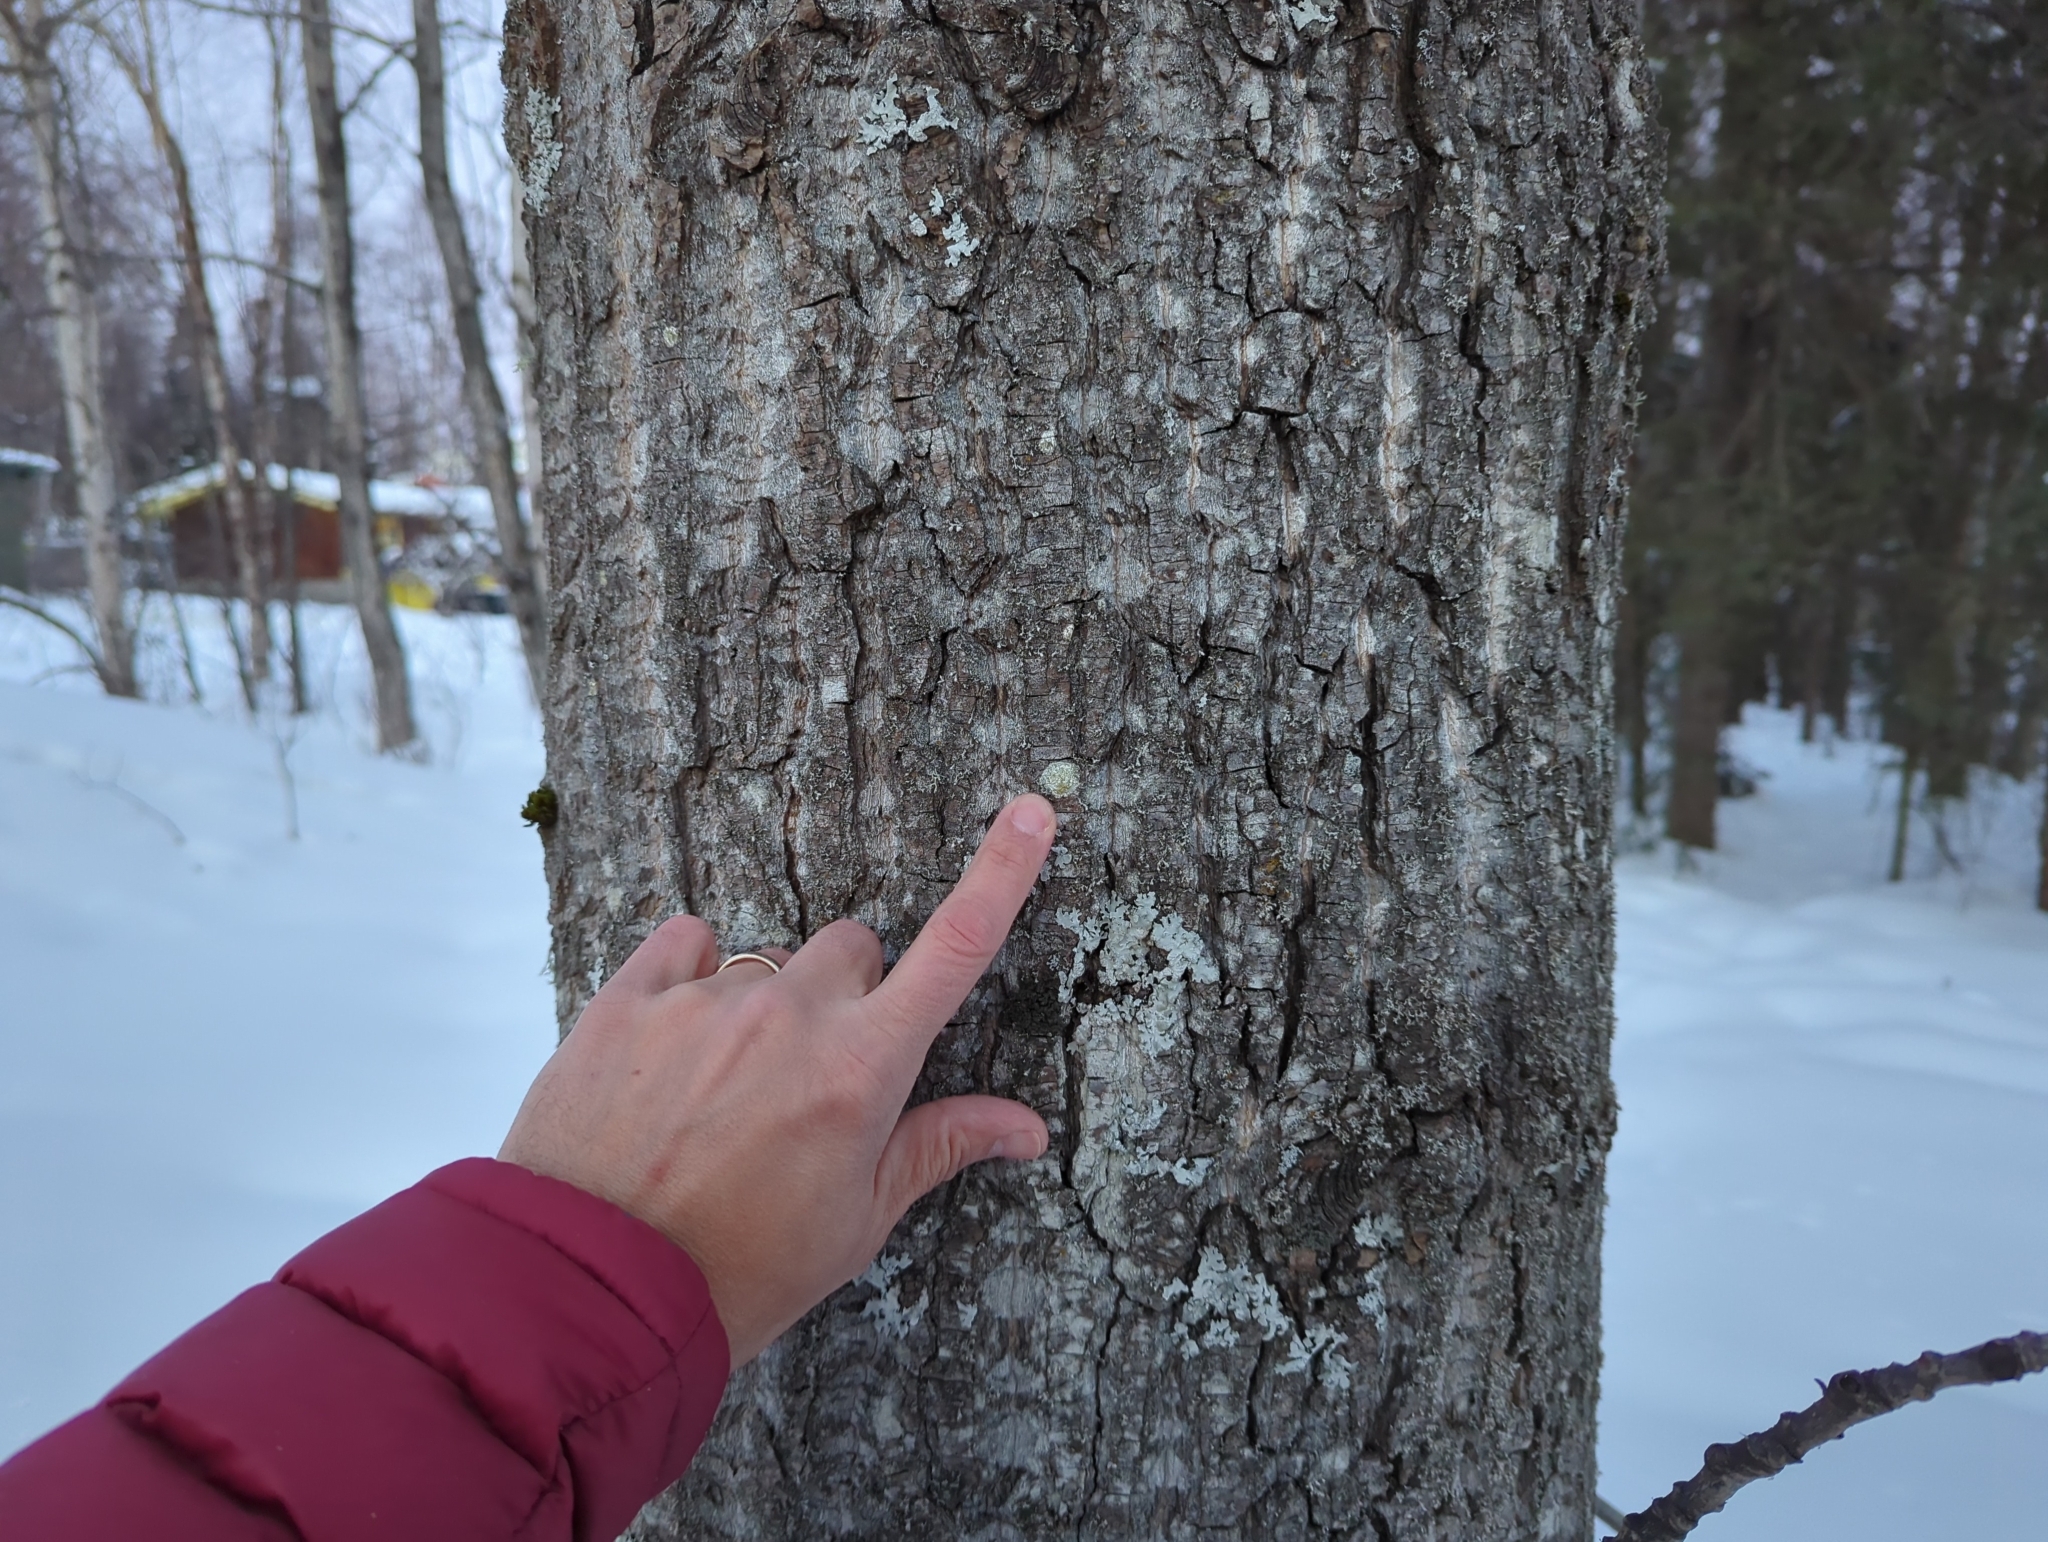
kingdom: Fungi
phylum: Ascomycota
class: Lecanoromycetes
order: Lecanorales
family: Lecanoraceae
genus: Lecanora
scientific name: Lecanora symmicta
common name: Fused rim lichen
